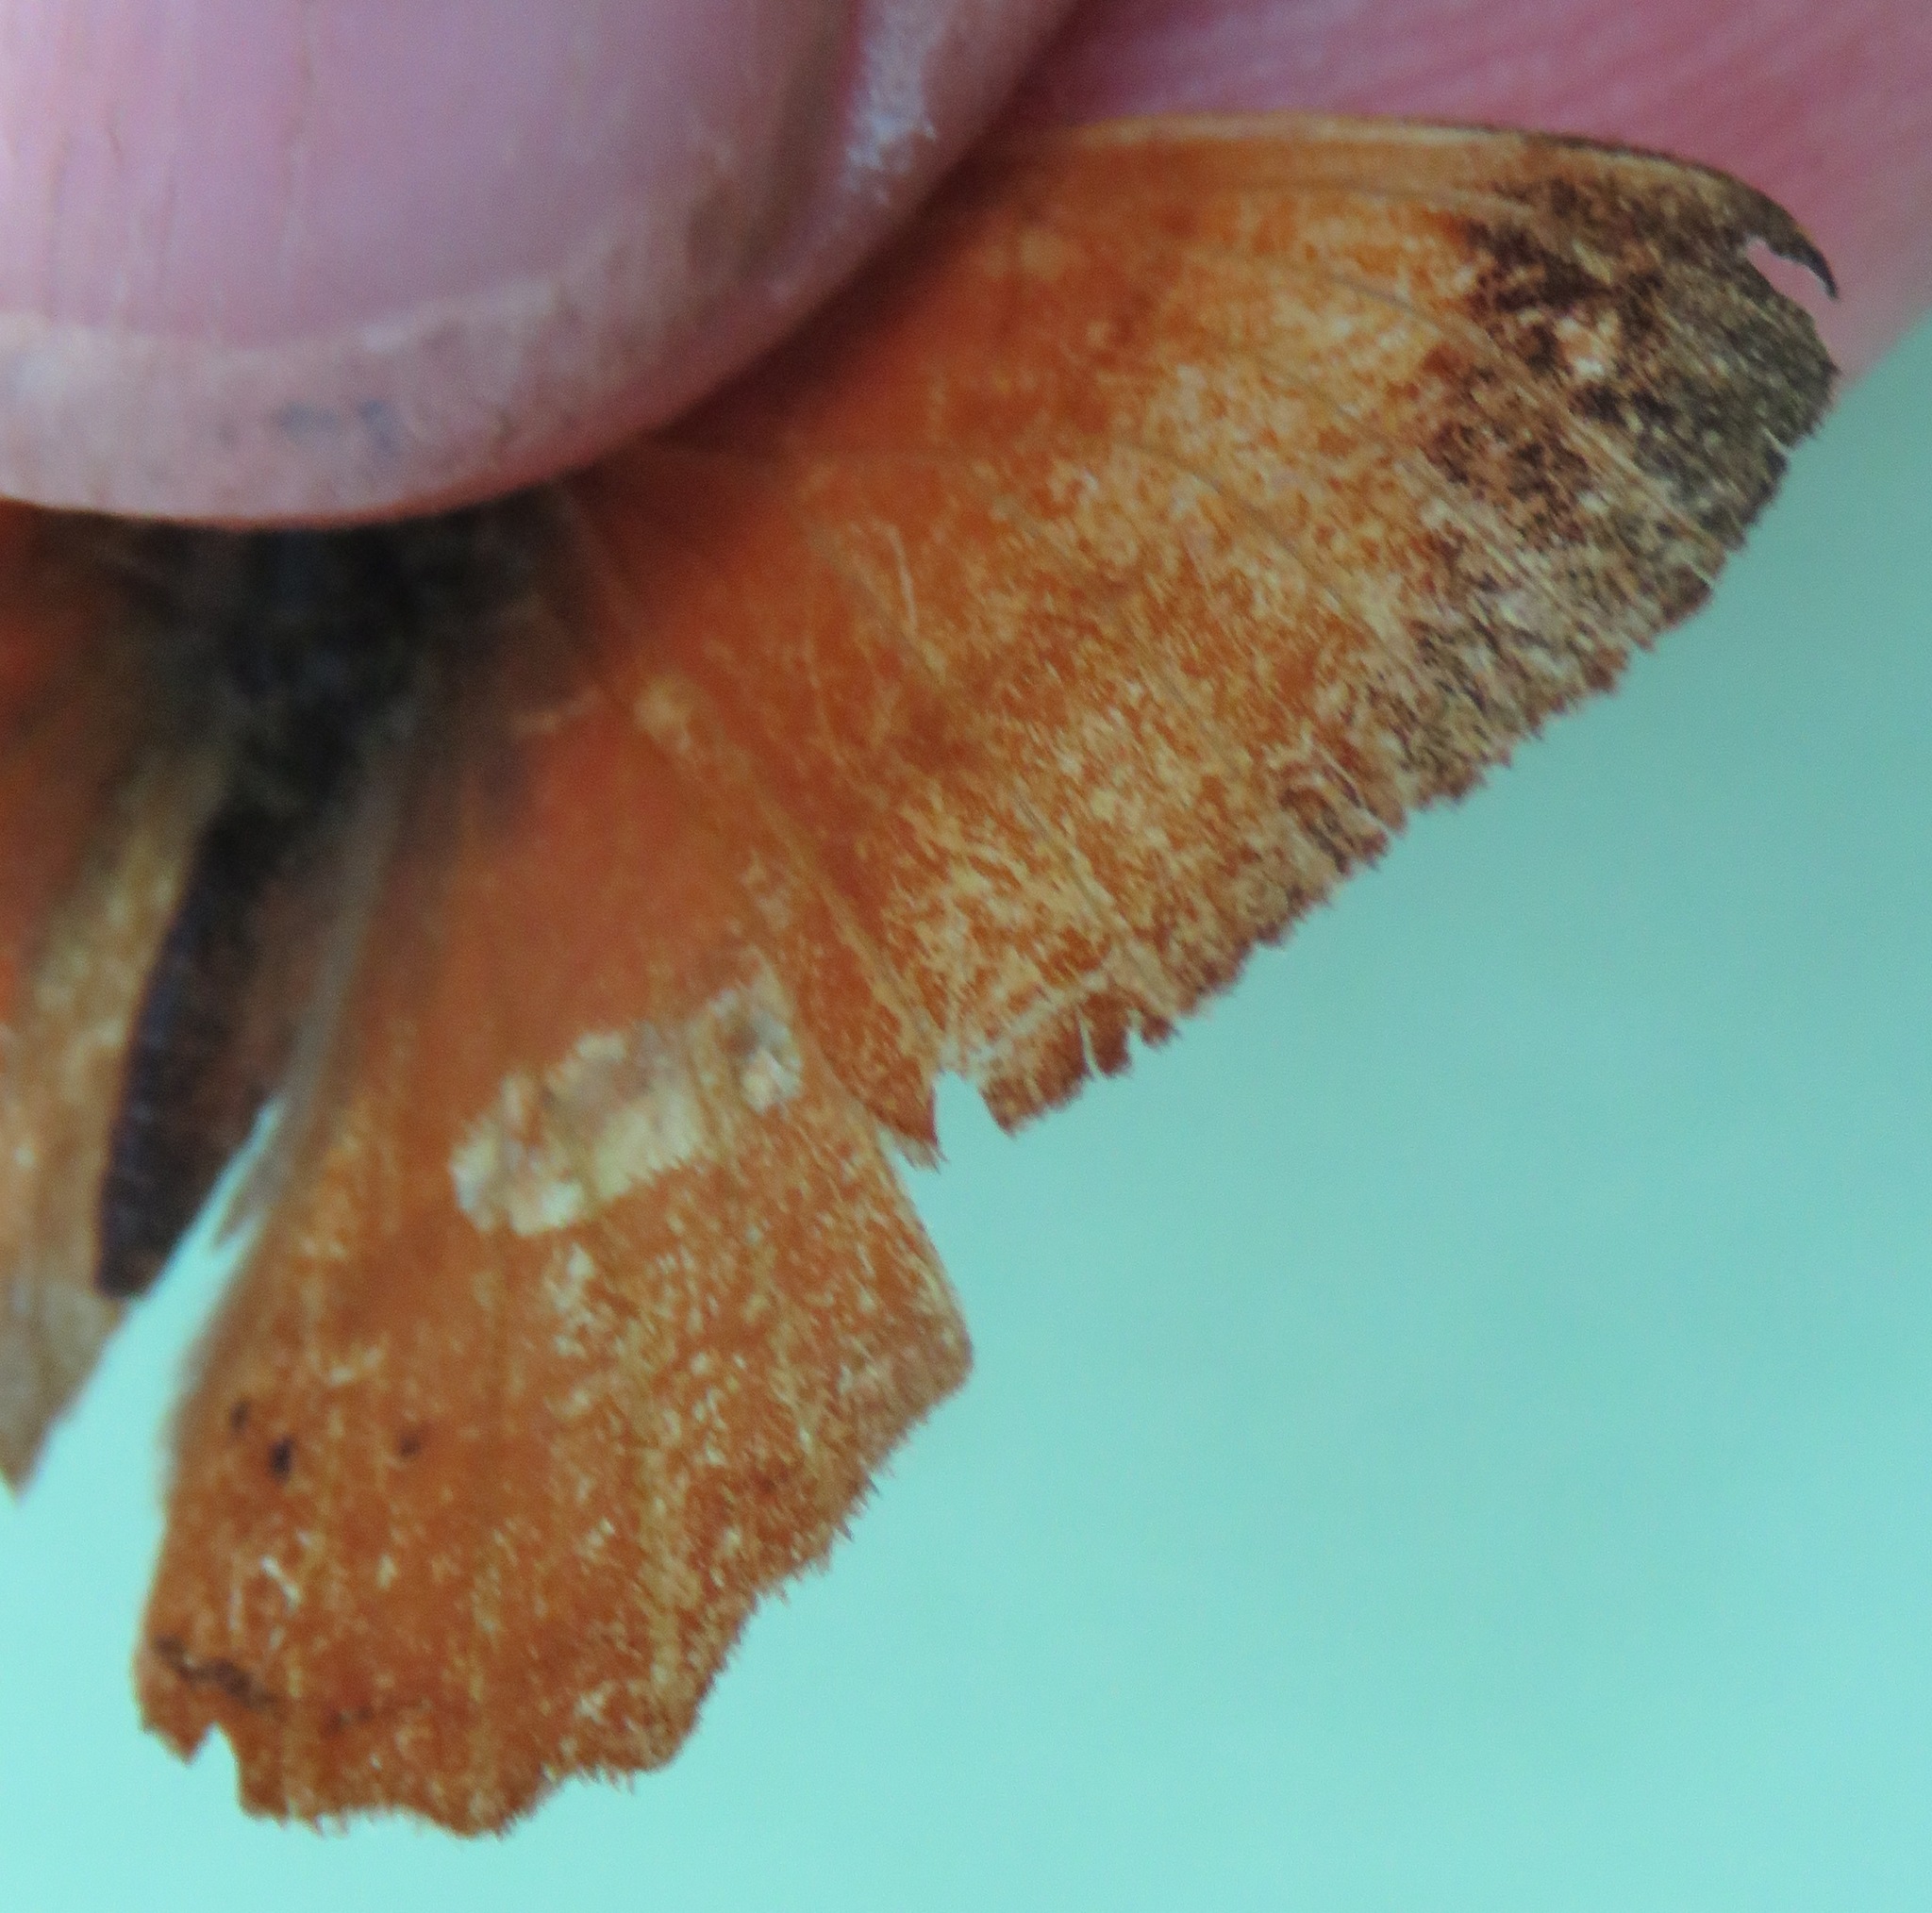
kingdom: Animalia
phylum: Arthropoda
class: Insecta
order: Lepidoptera
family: Nymphalidae
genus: Nica
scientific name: Nica flavilla
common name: Mandarin nica
